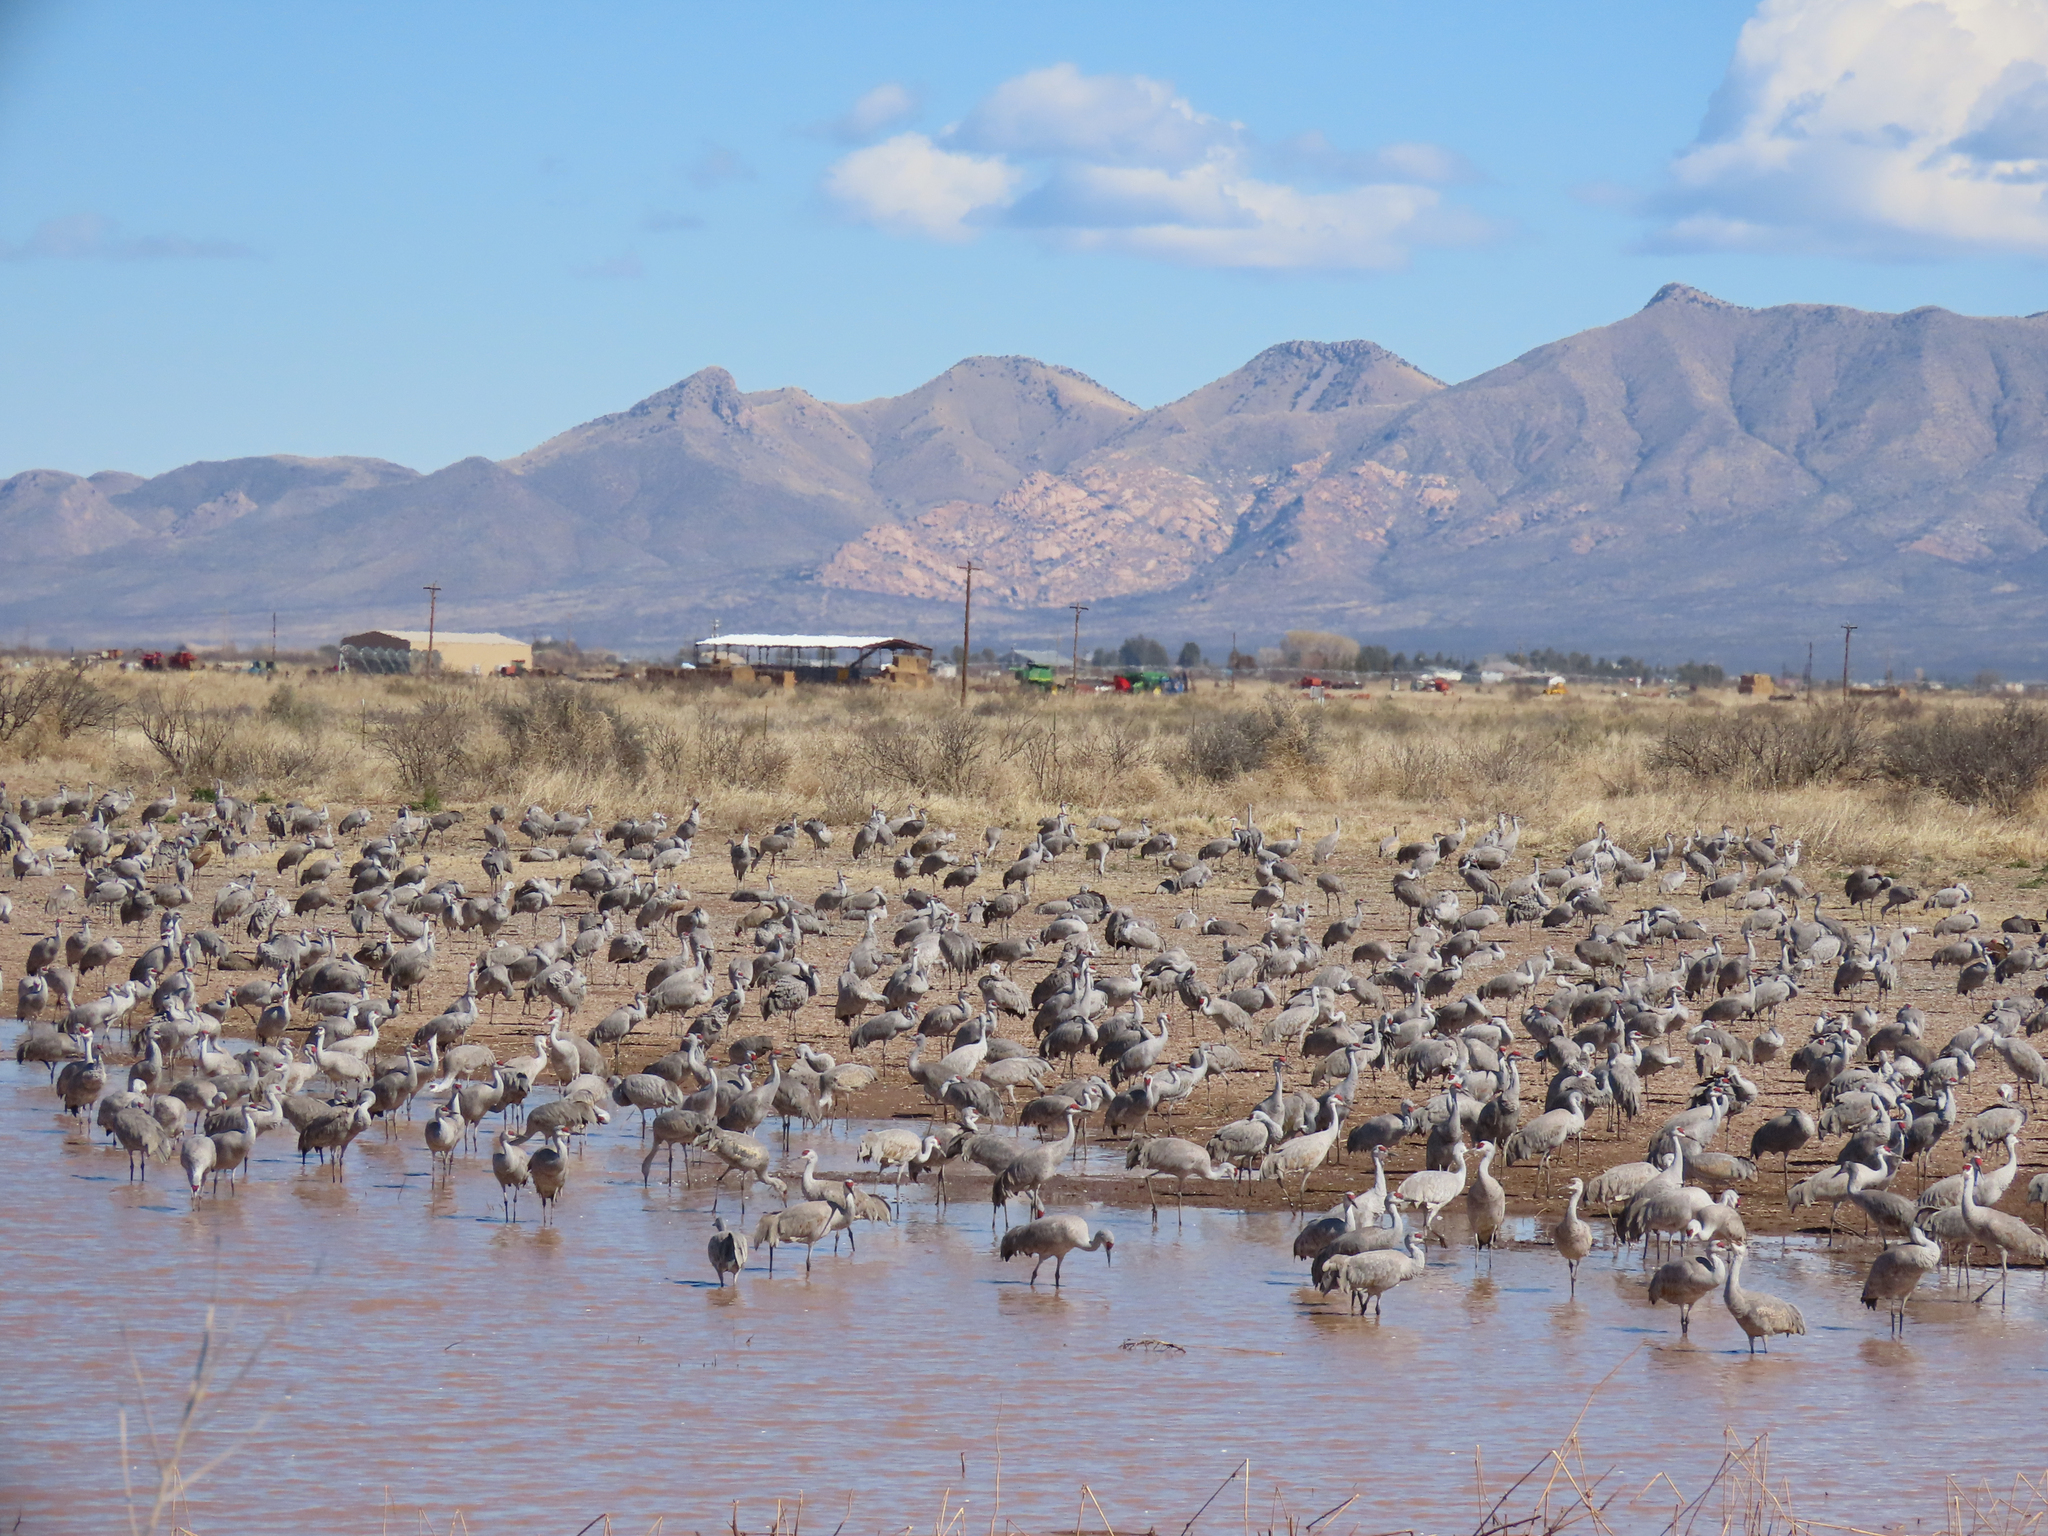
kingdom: Animalia
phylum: Chordata
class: Aves
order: Gruiformes
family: Gruidae
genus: Grus
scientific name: Grus canadensis
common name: Sandhill crane
